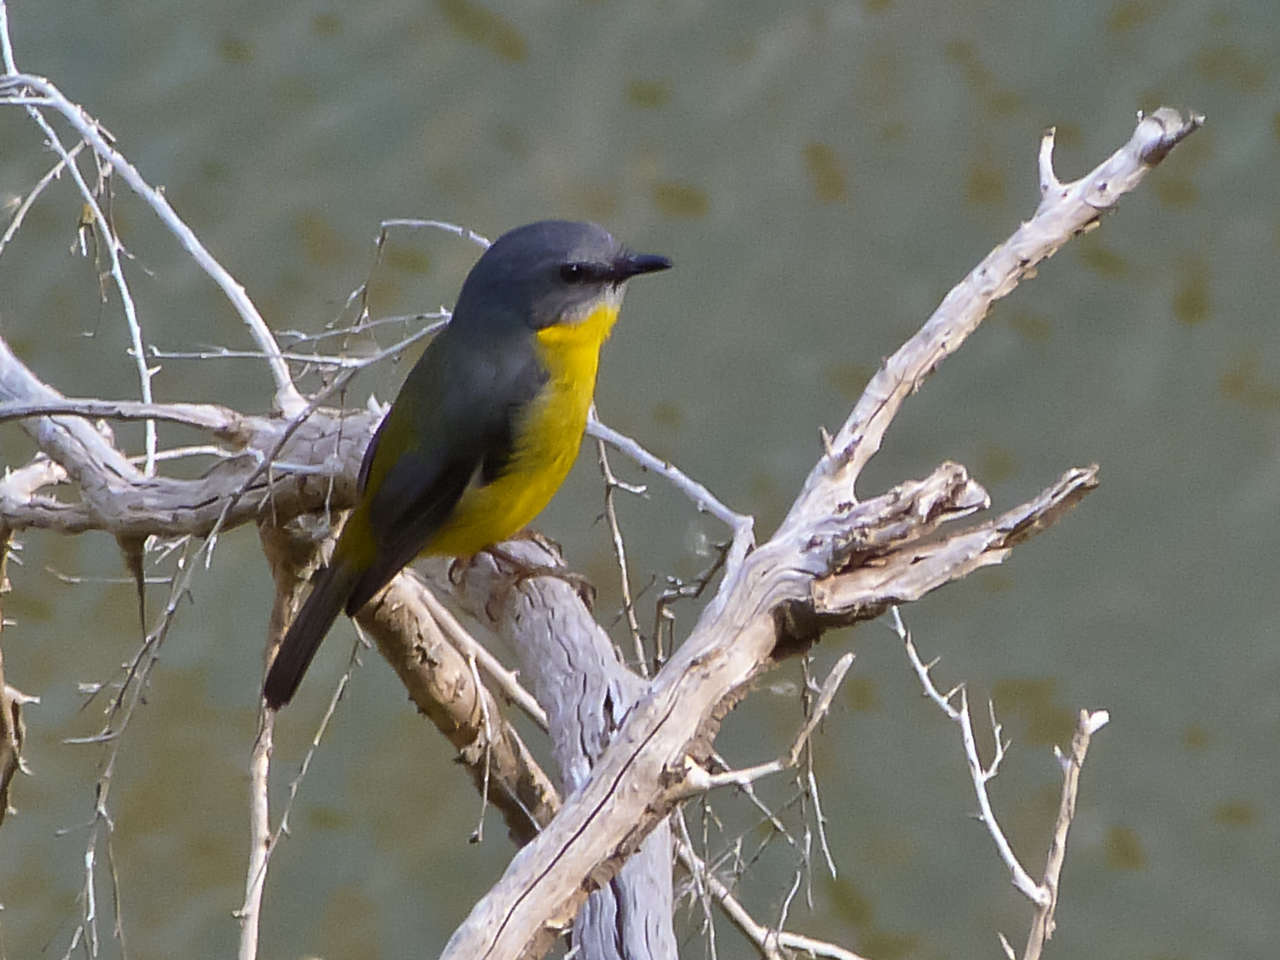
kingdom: Animalia
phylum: Chordata
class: Aves
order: Passeriformes
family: Petroicidae
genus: Eopsaltria
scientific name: Eopsaltria australis
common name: Eastern yellow robin
